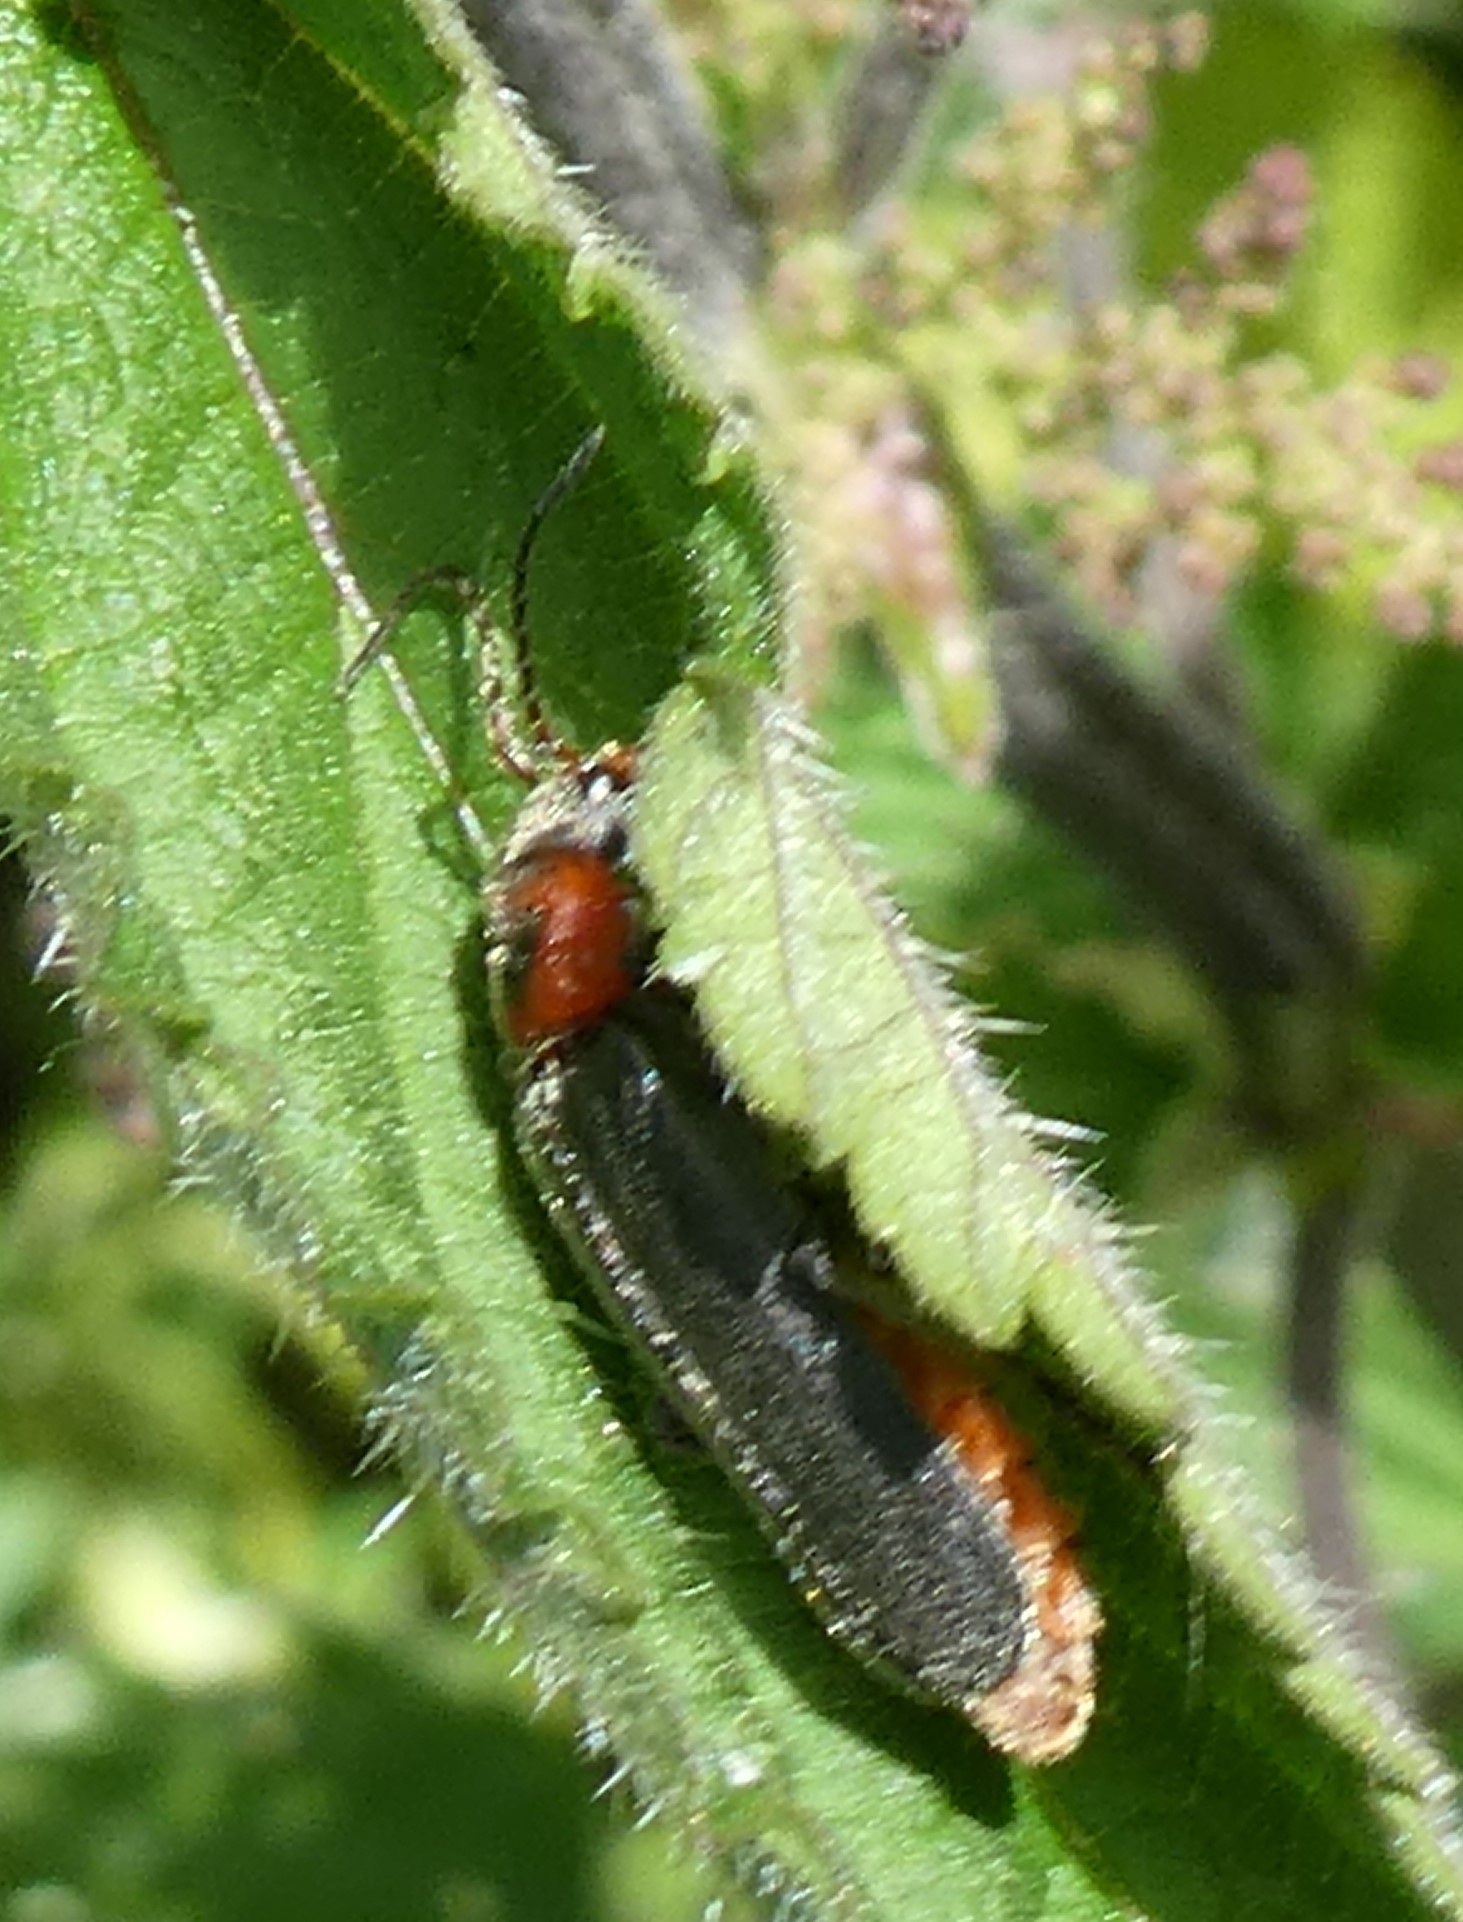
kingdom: Animalia
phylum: Arthropoda
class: Insecta
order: Coleoptera
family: Cantharidae
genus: Cantharis
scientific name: Cantharis rustica
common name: Soldier beetle
